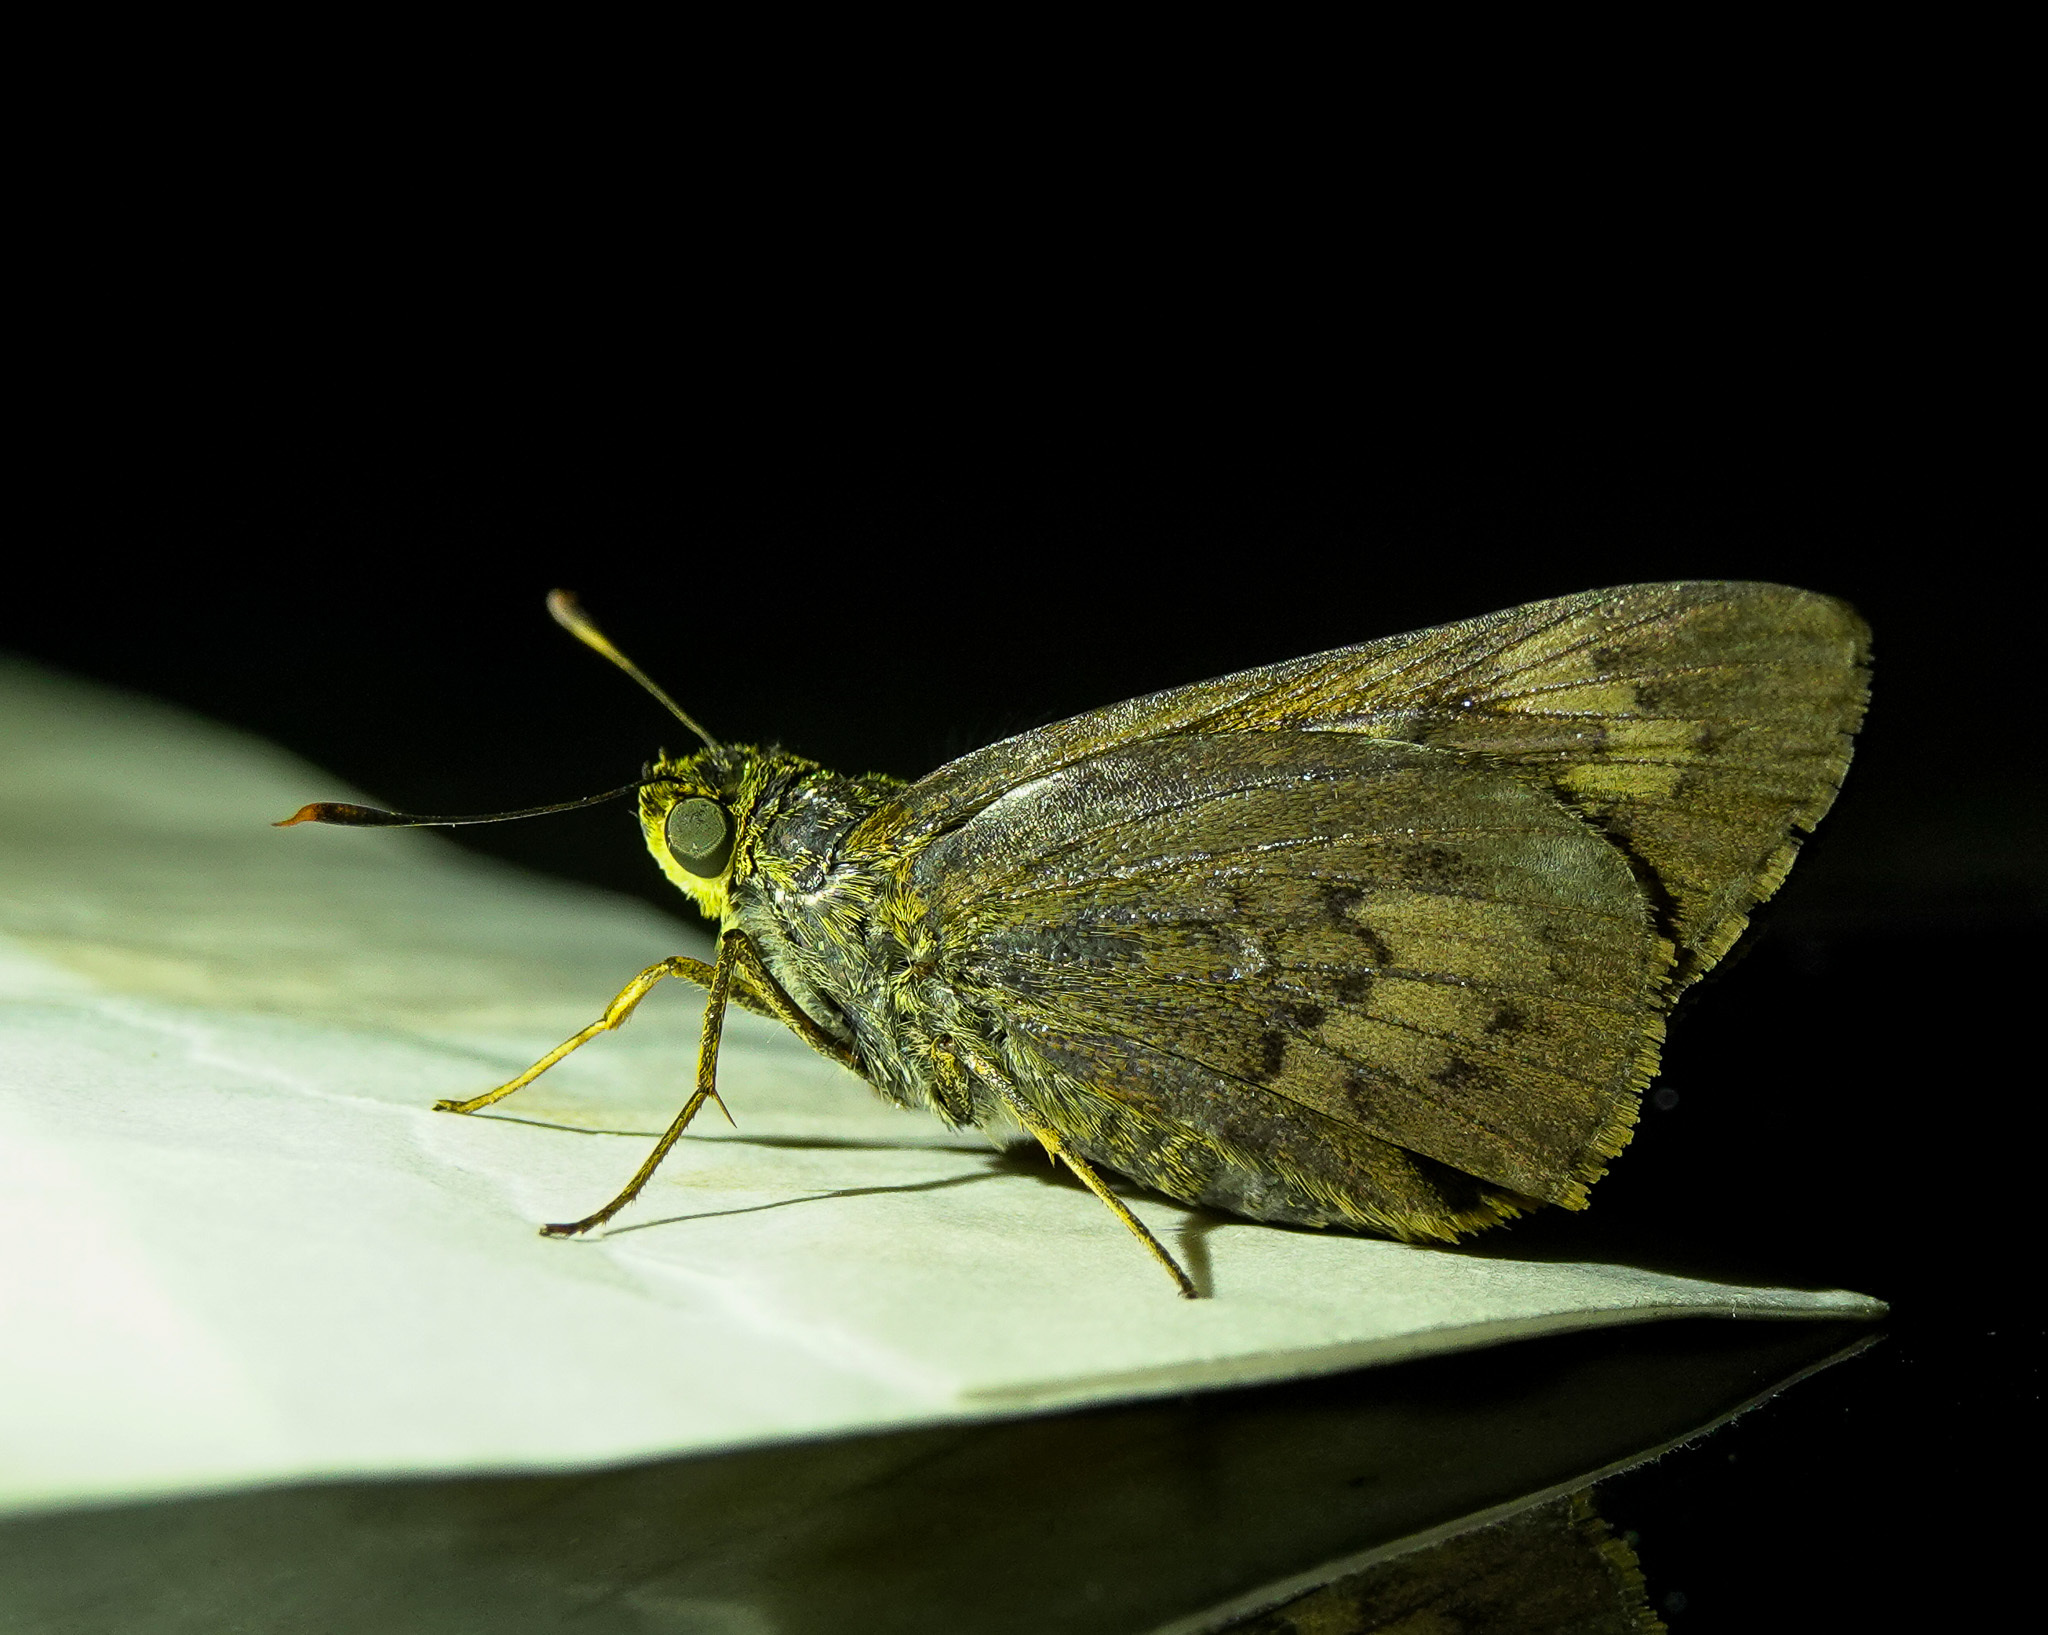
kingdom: Animalia
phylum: Arthropoda
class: Insecta
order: Lepidoptera
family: Hesperiidae
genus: Cephrenes
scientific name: Cephrenes
